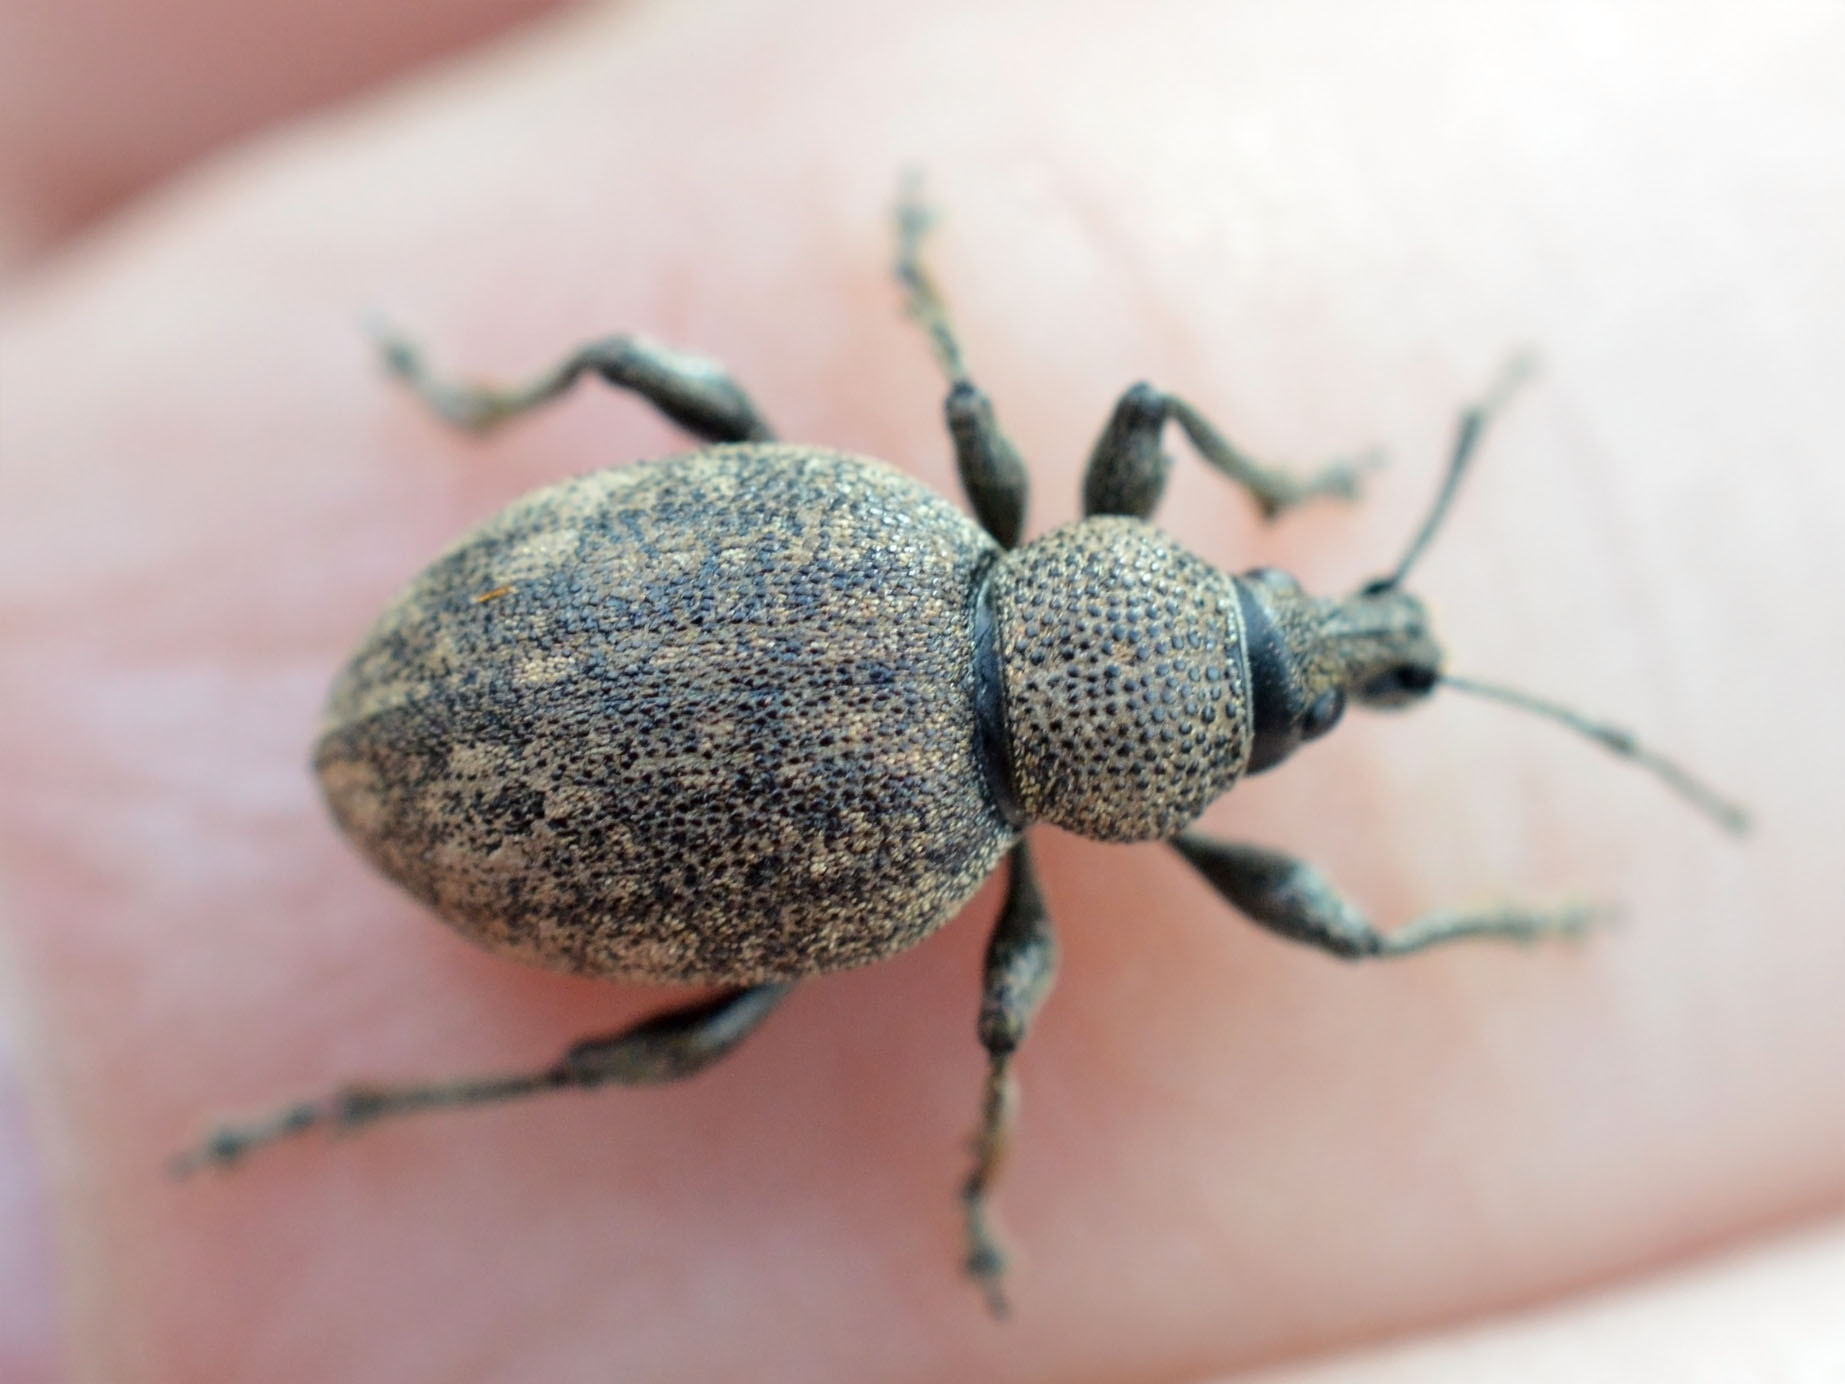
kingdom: Animalia
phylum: Arthropoda
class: Insecta
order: Coleoptera
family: Curculionidae
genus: Otiorhynchus
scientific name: Otiorhynchus ligustici
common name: Weevil
